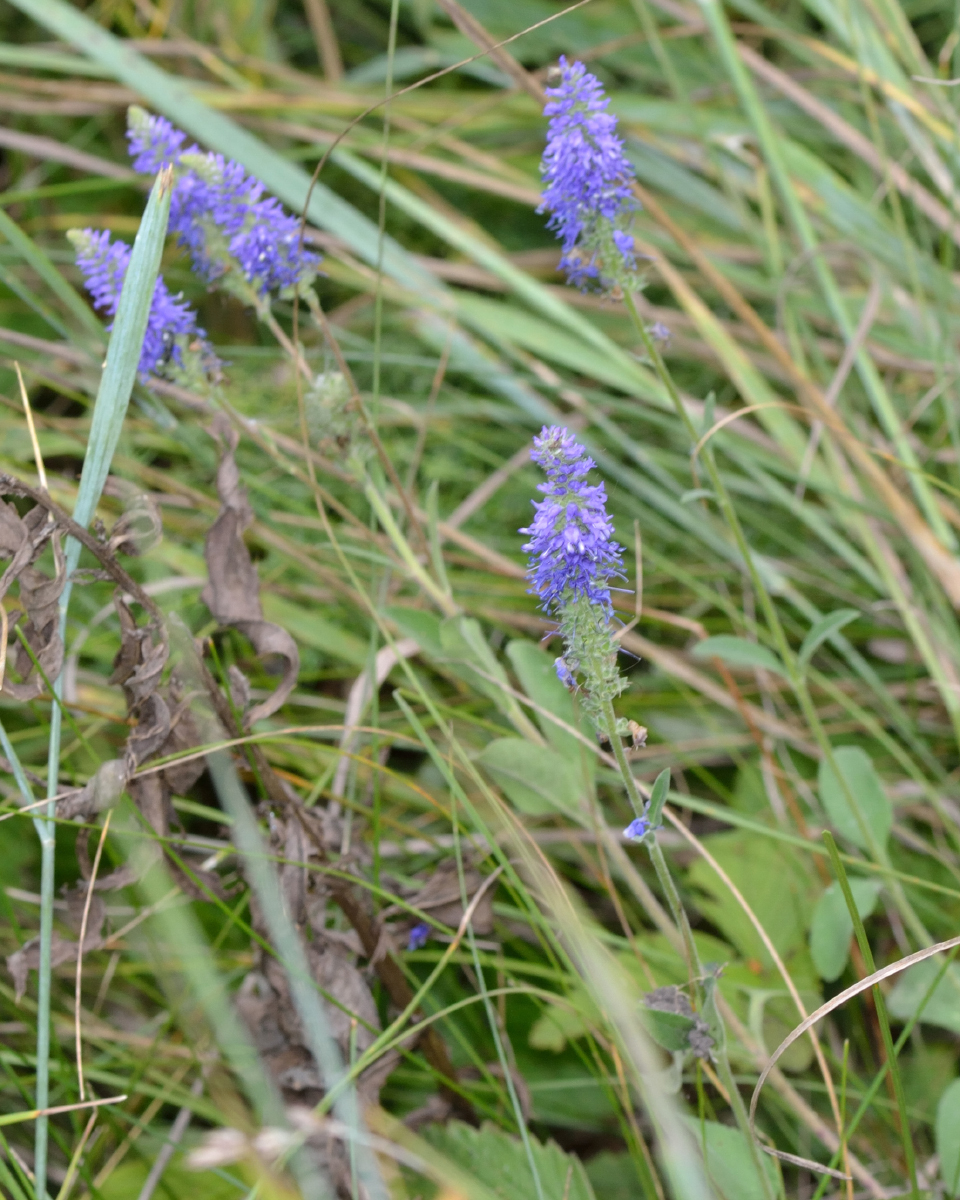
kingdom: Plantae
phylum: Tracheophyta
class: Magnoliopsida
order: Lamiales
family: Plantaginaceae
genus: Veronica
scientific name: Veronica spicata
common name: Spiked speedwell
